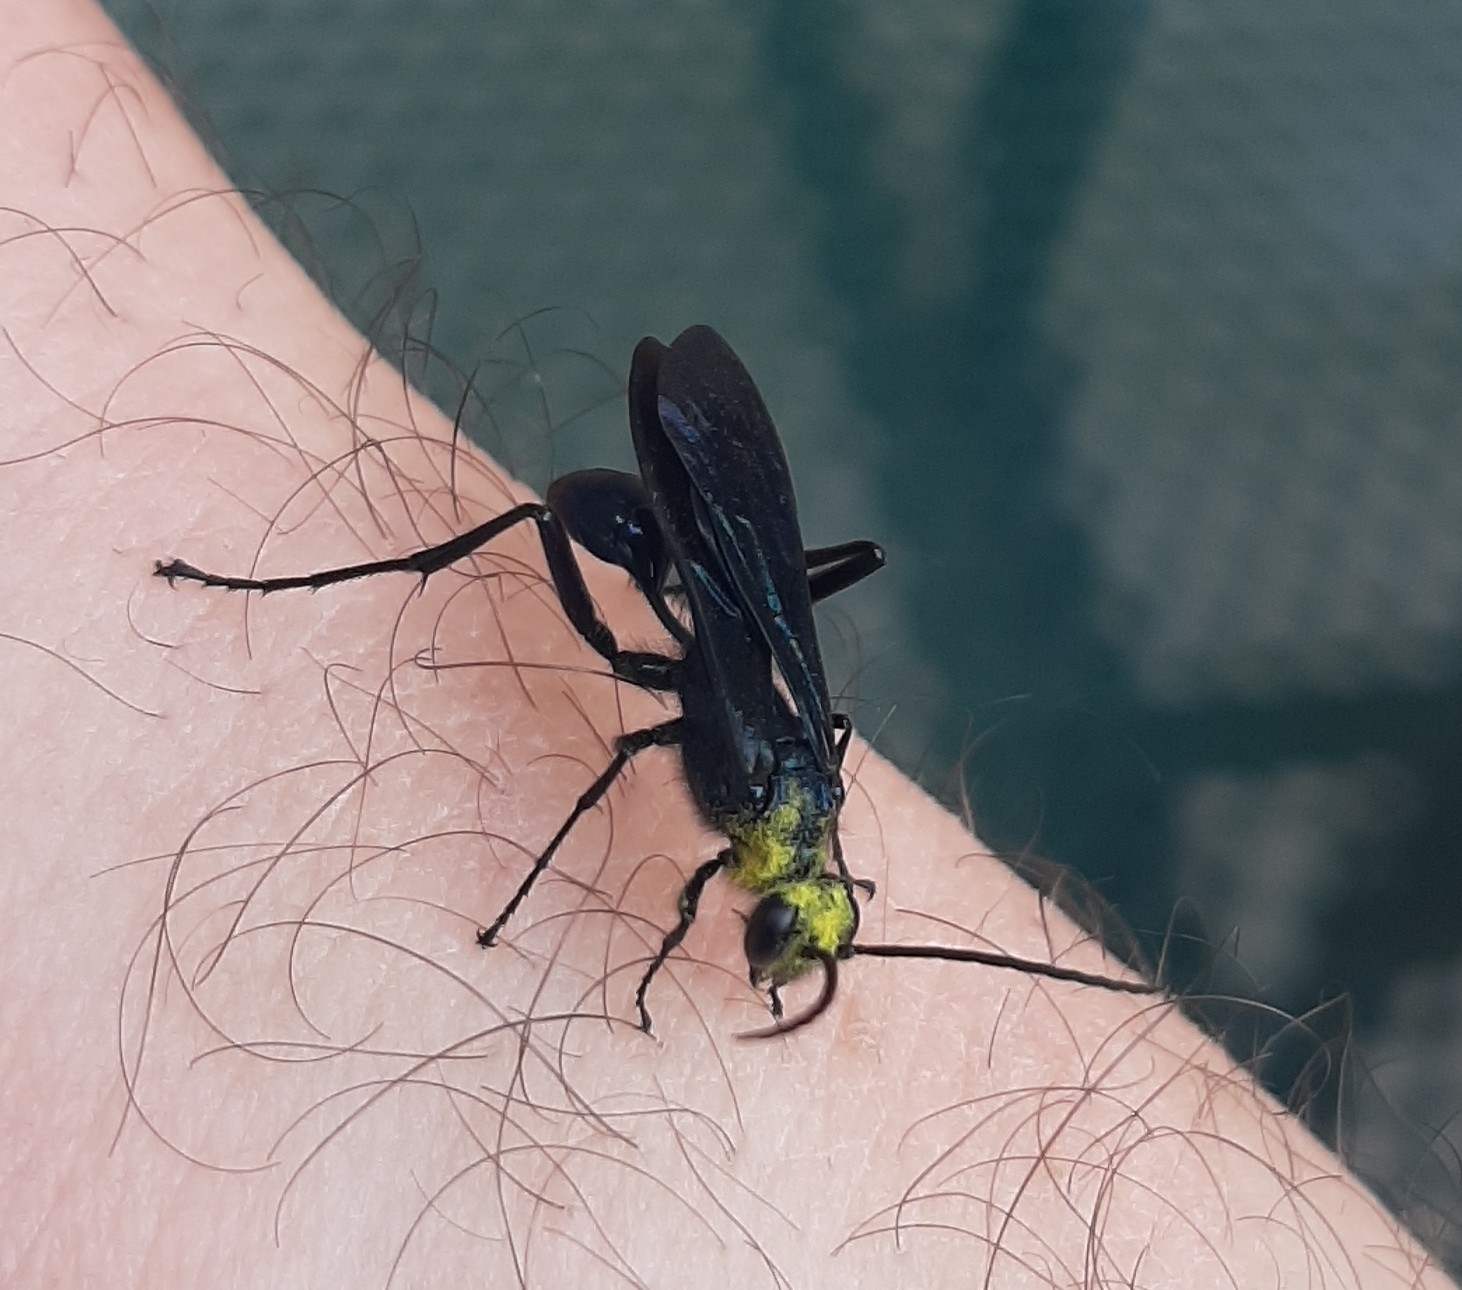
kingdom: Animalia
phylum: Arthropoda
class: Insecta
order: Hymenoptera
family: Sphecidae
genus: Chalybion
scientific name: Chalybion californicum
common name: Mud dauber
